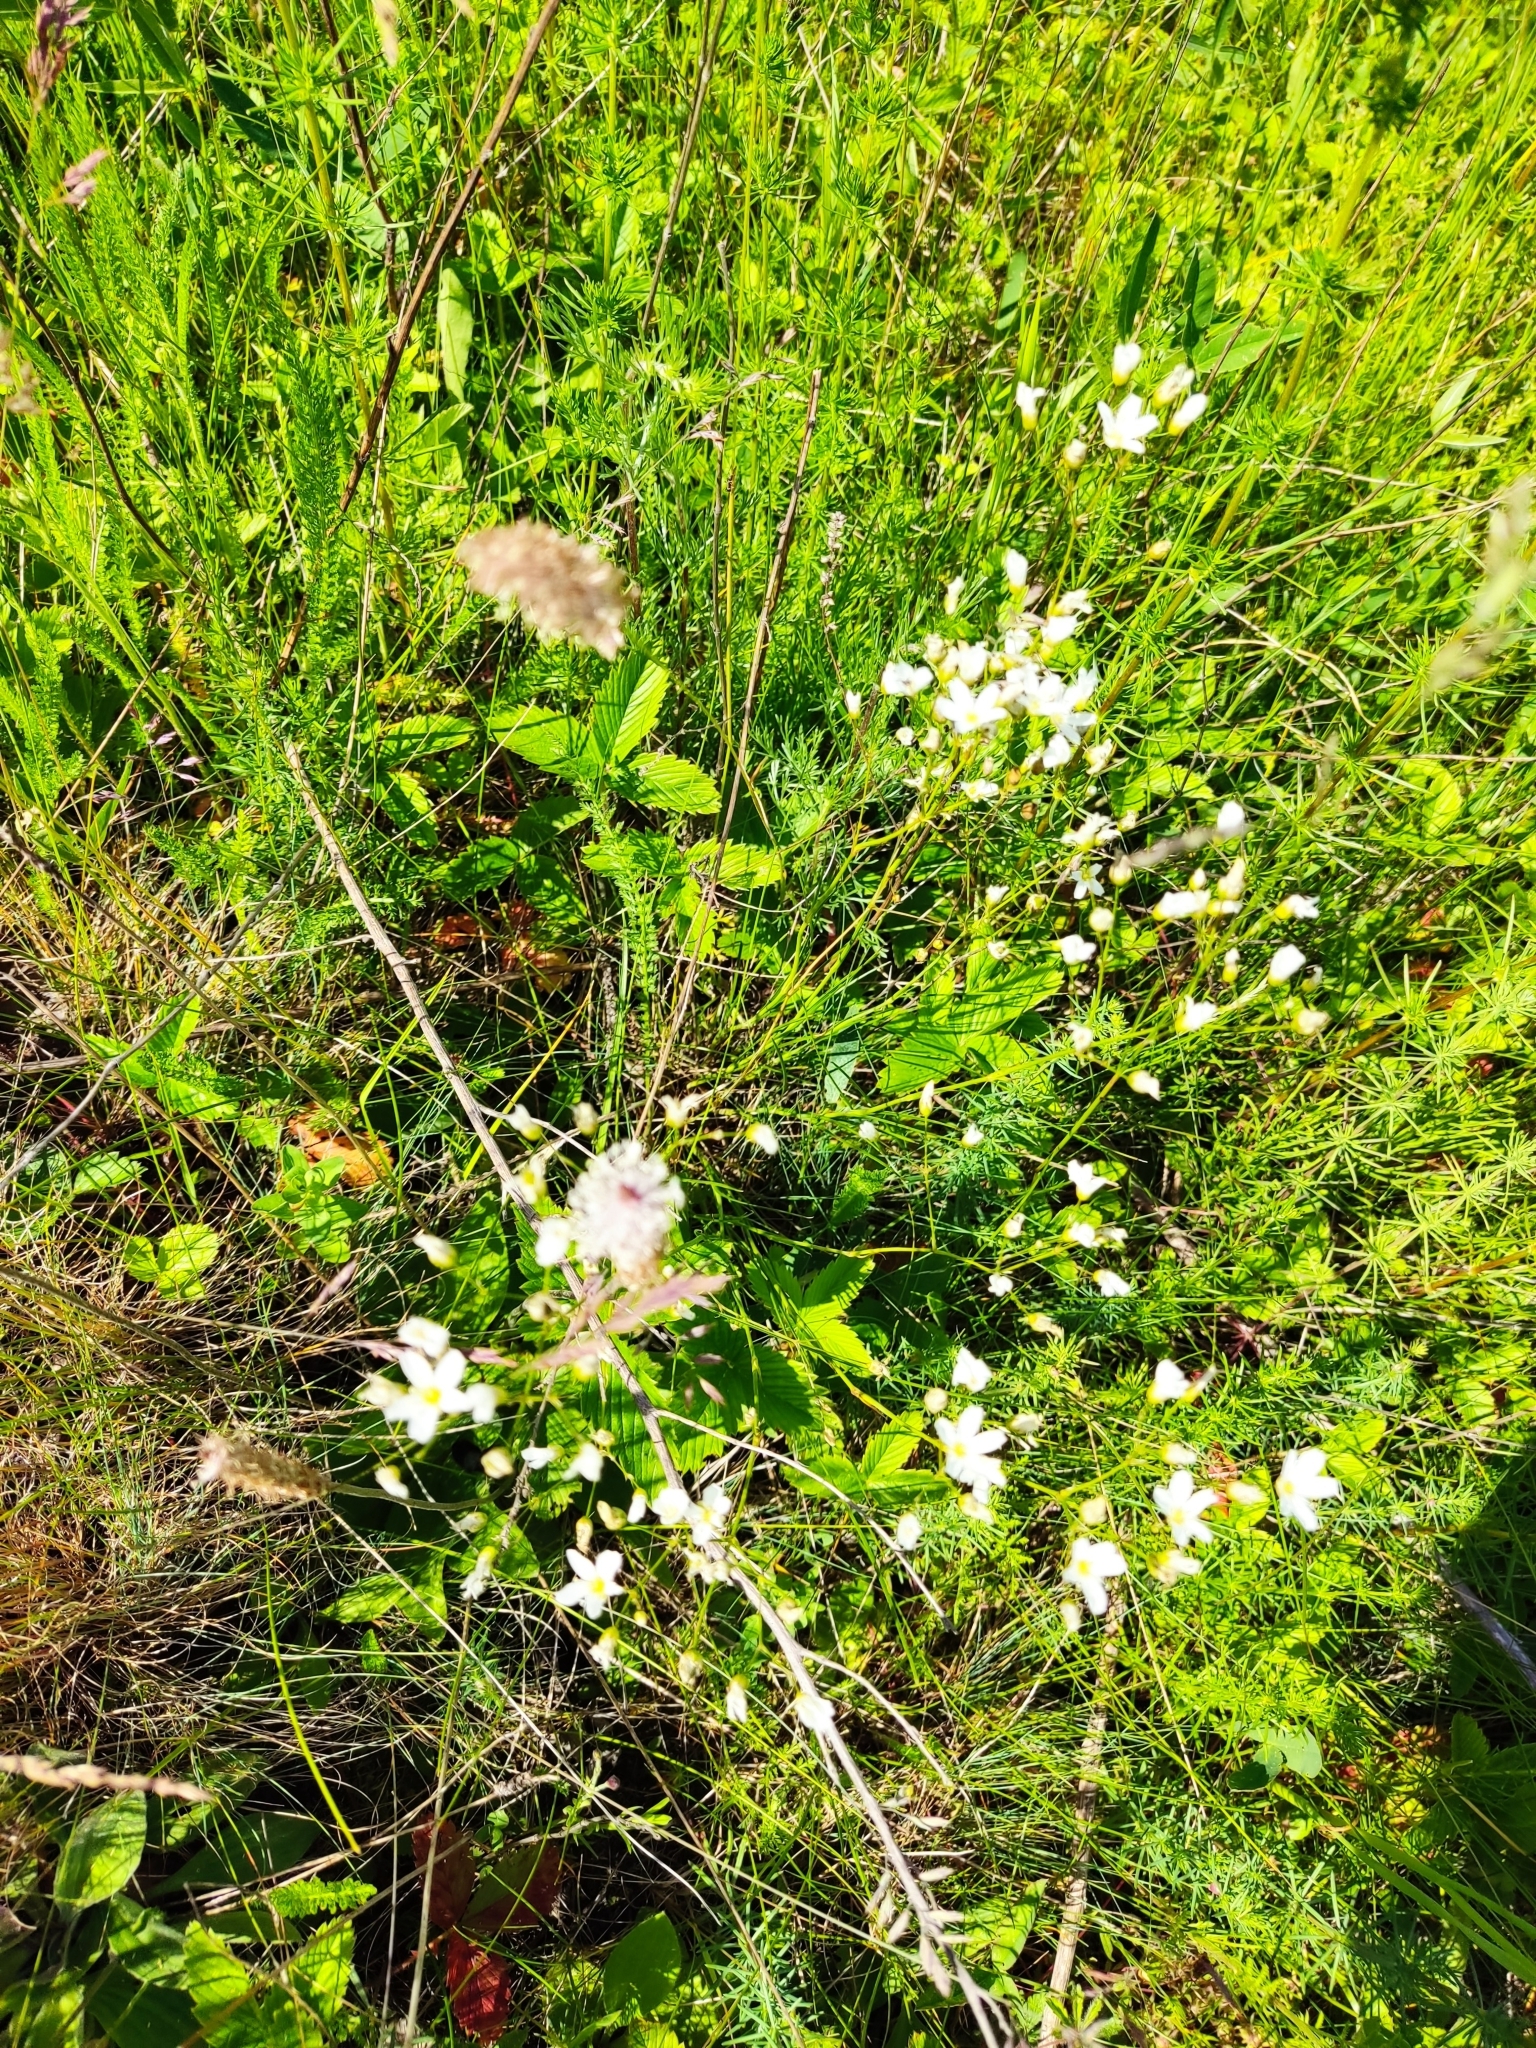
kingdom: Plantae
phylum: Tracheophyta
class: Magnoliopsida
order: Caryophyllales
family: Caryophyllaceae
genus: Eremogone
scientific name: Eremogone saxatilis
